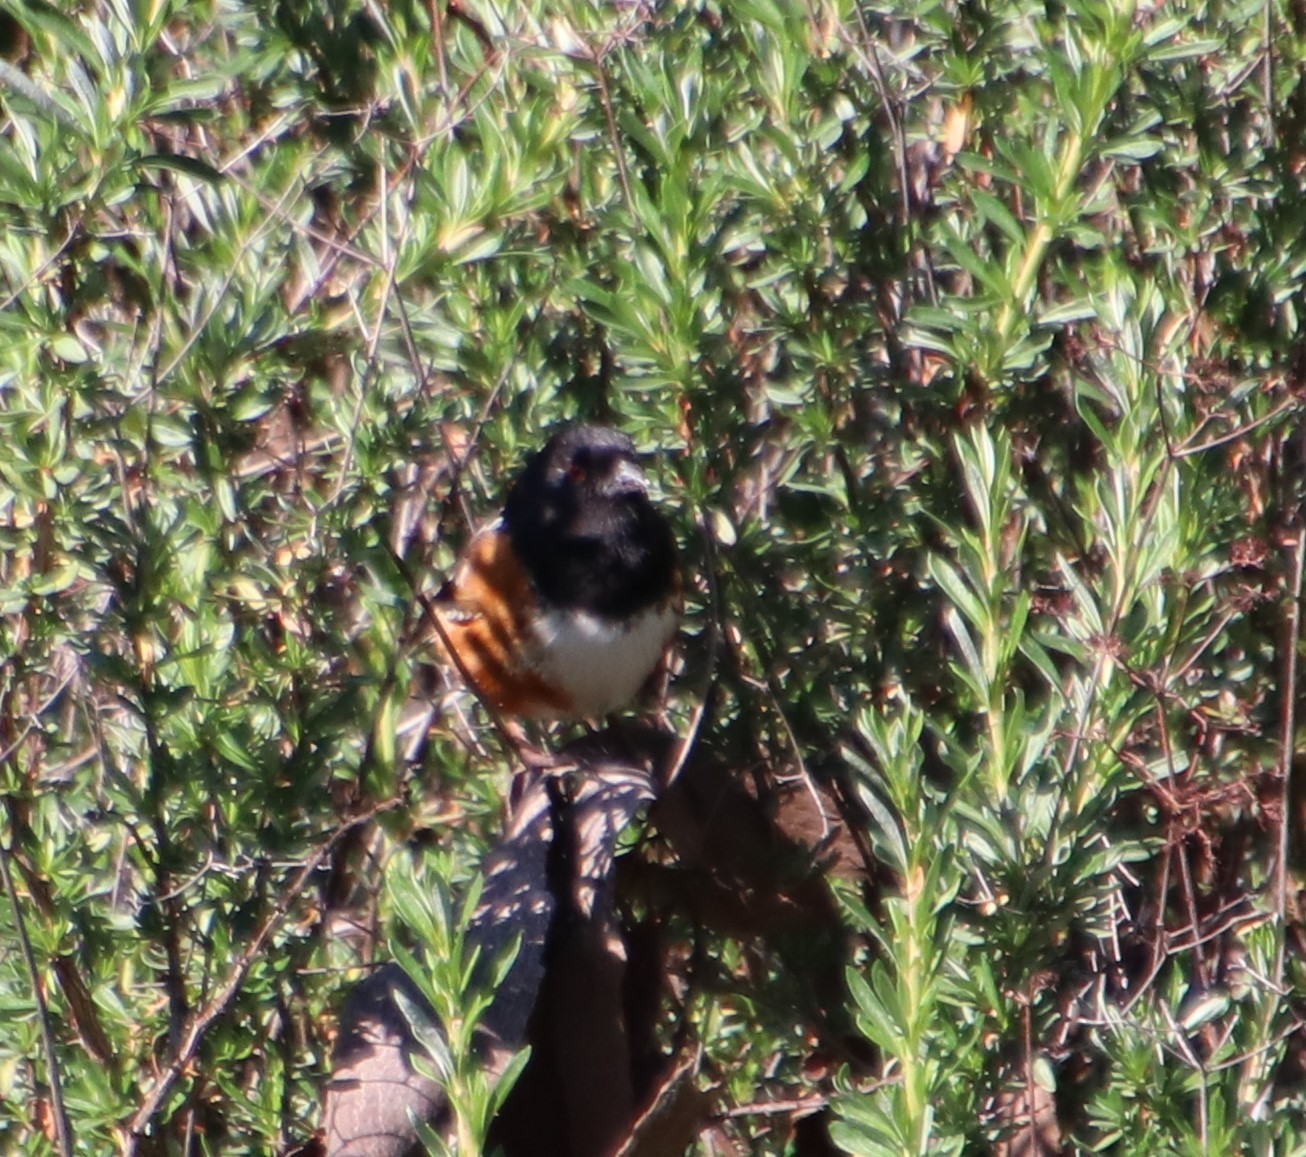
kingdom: Animalia
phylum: Chordata
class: Aves
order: Passeriformes
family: Passerellidae
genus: Pipilo
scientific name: Pipilo maculatus
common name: Spotted towhee
